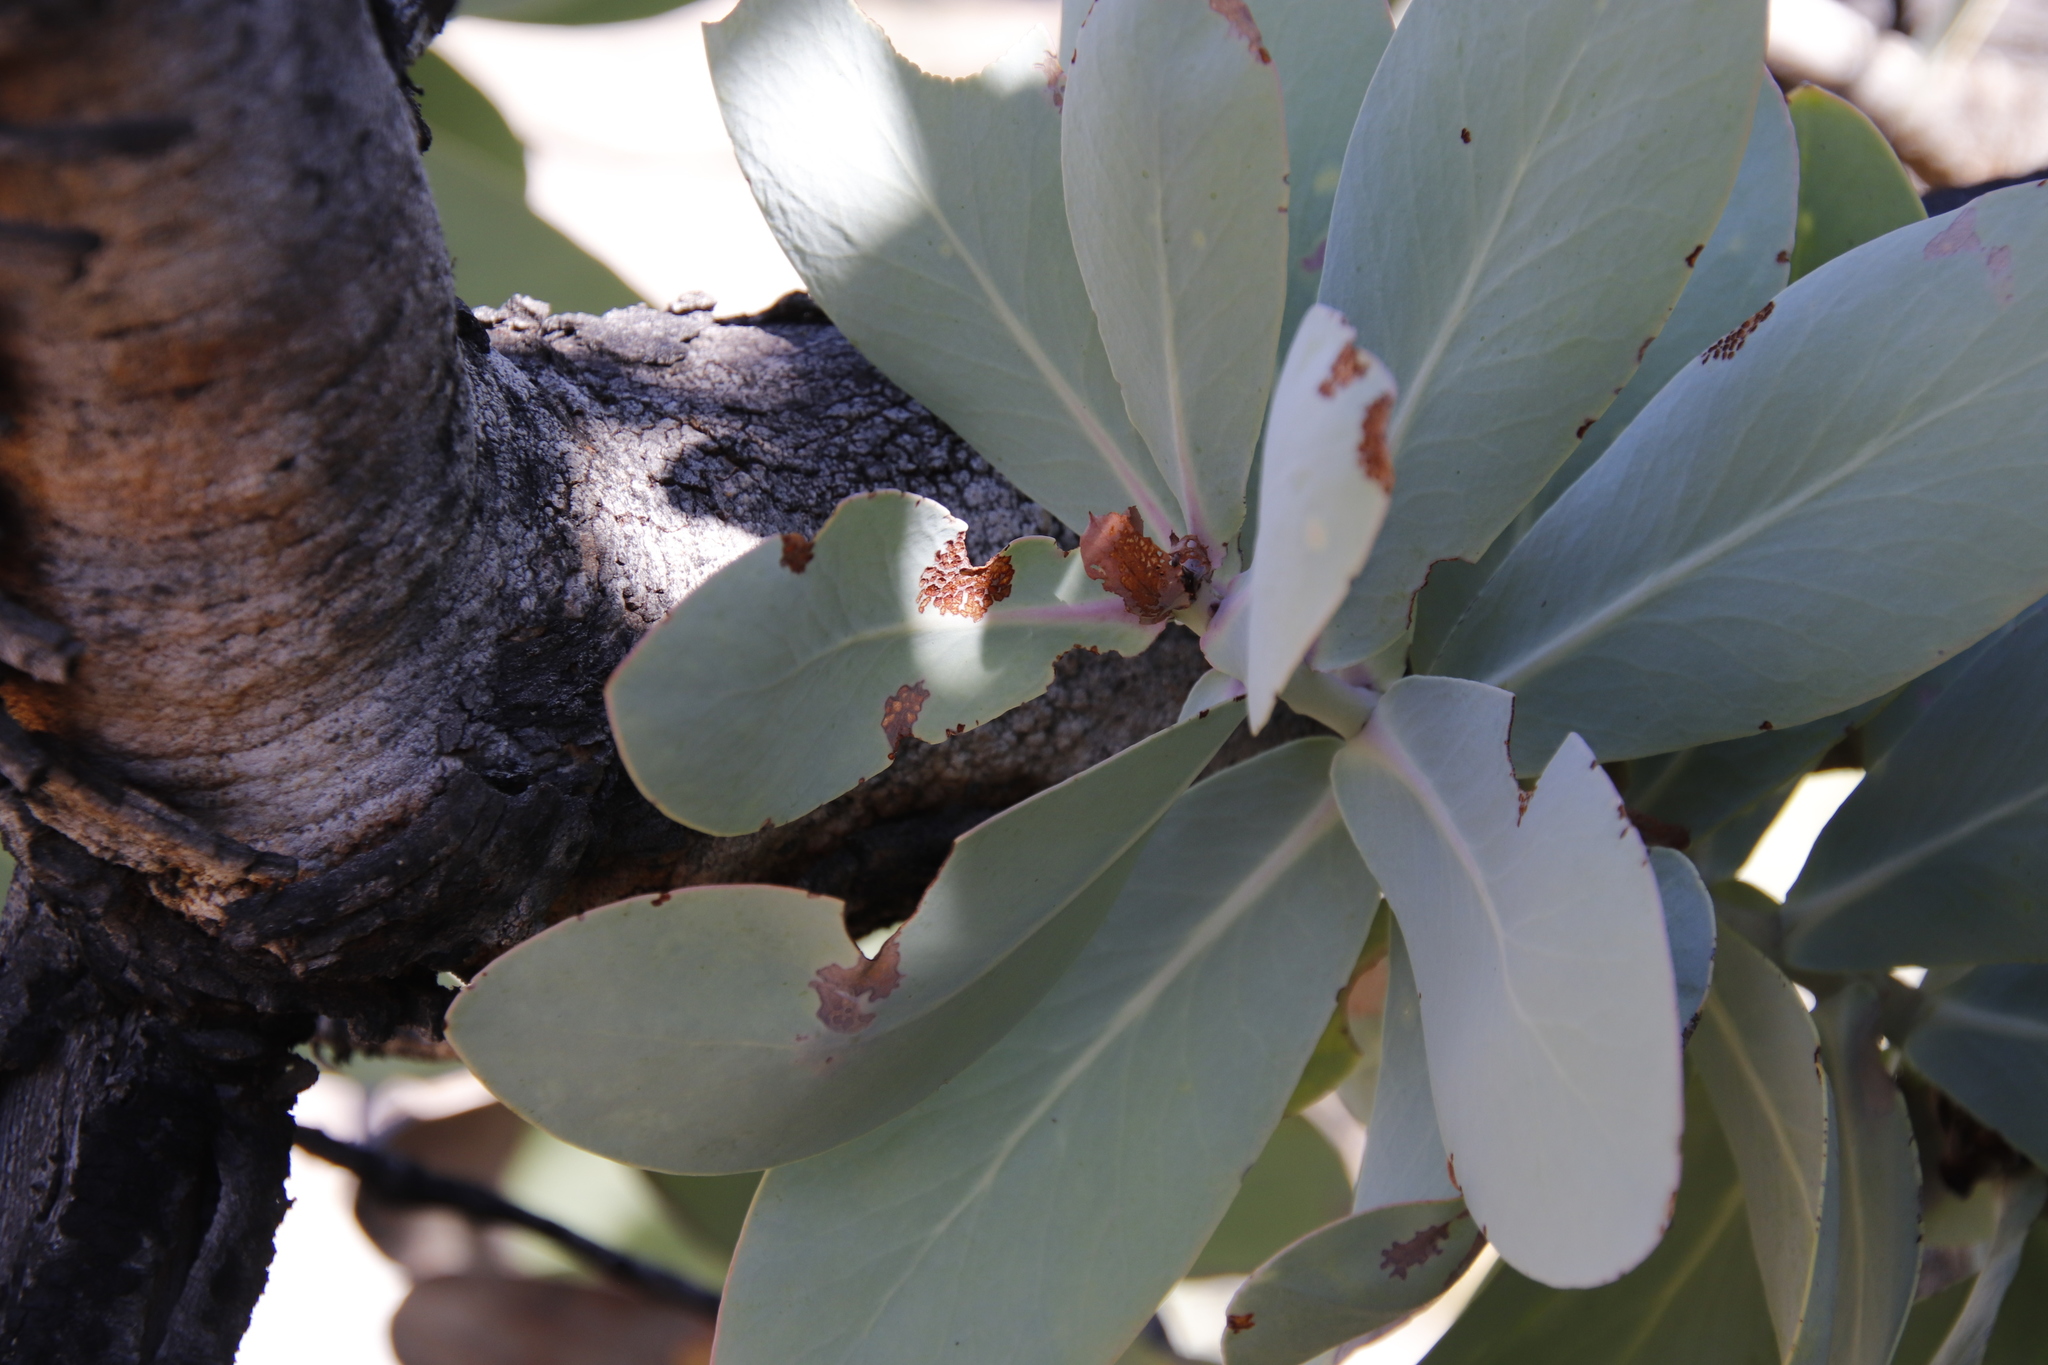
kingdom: Plantae
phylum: Tracheophyta
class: Magnoliopsida
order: Proteales
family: Proteaceae
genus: Protea
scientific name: Protea nitida
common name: Tree protea
